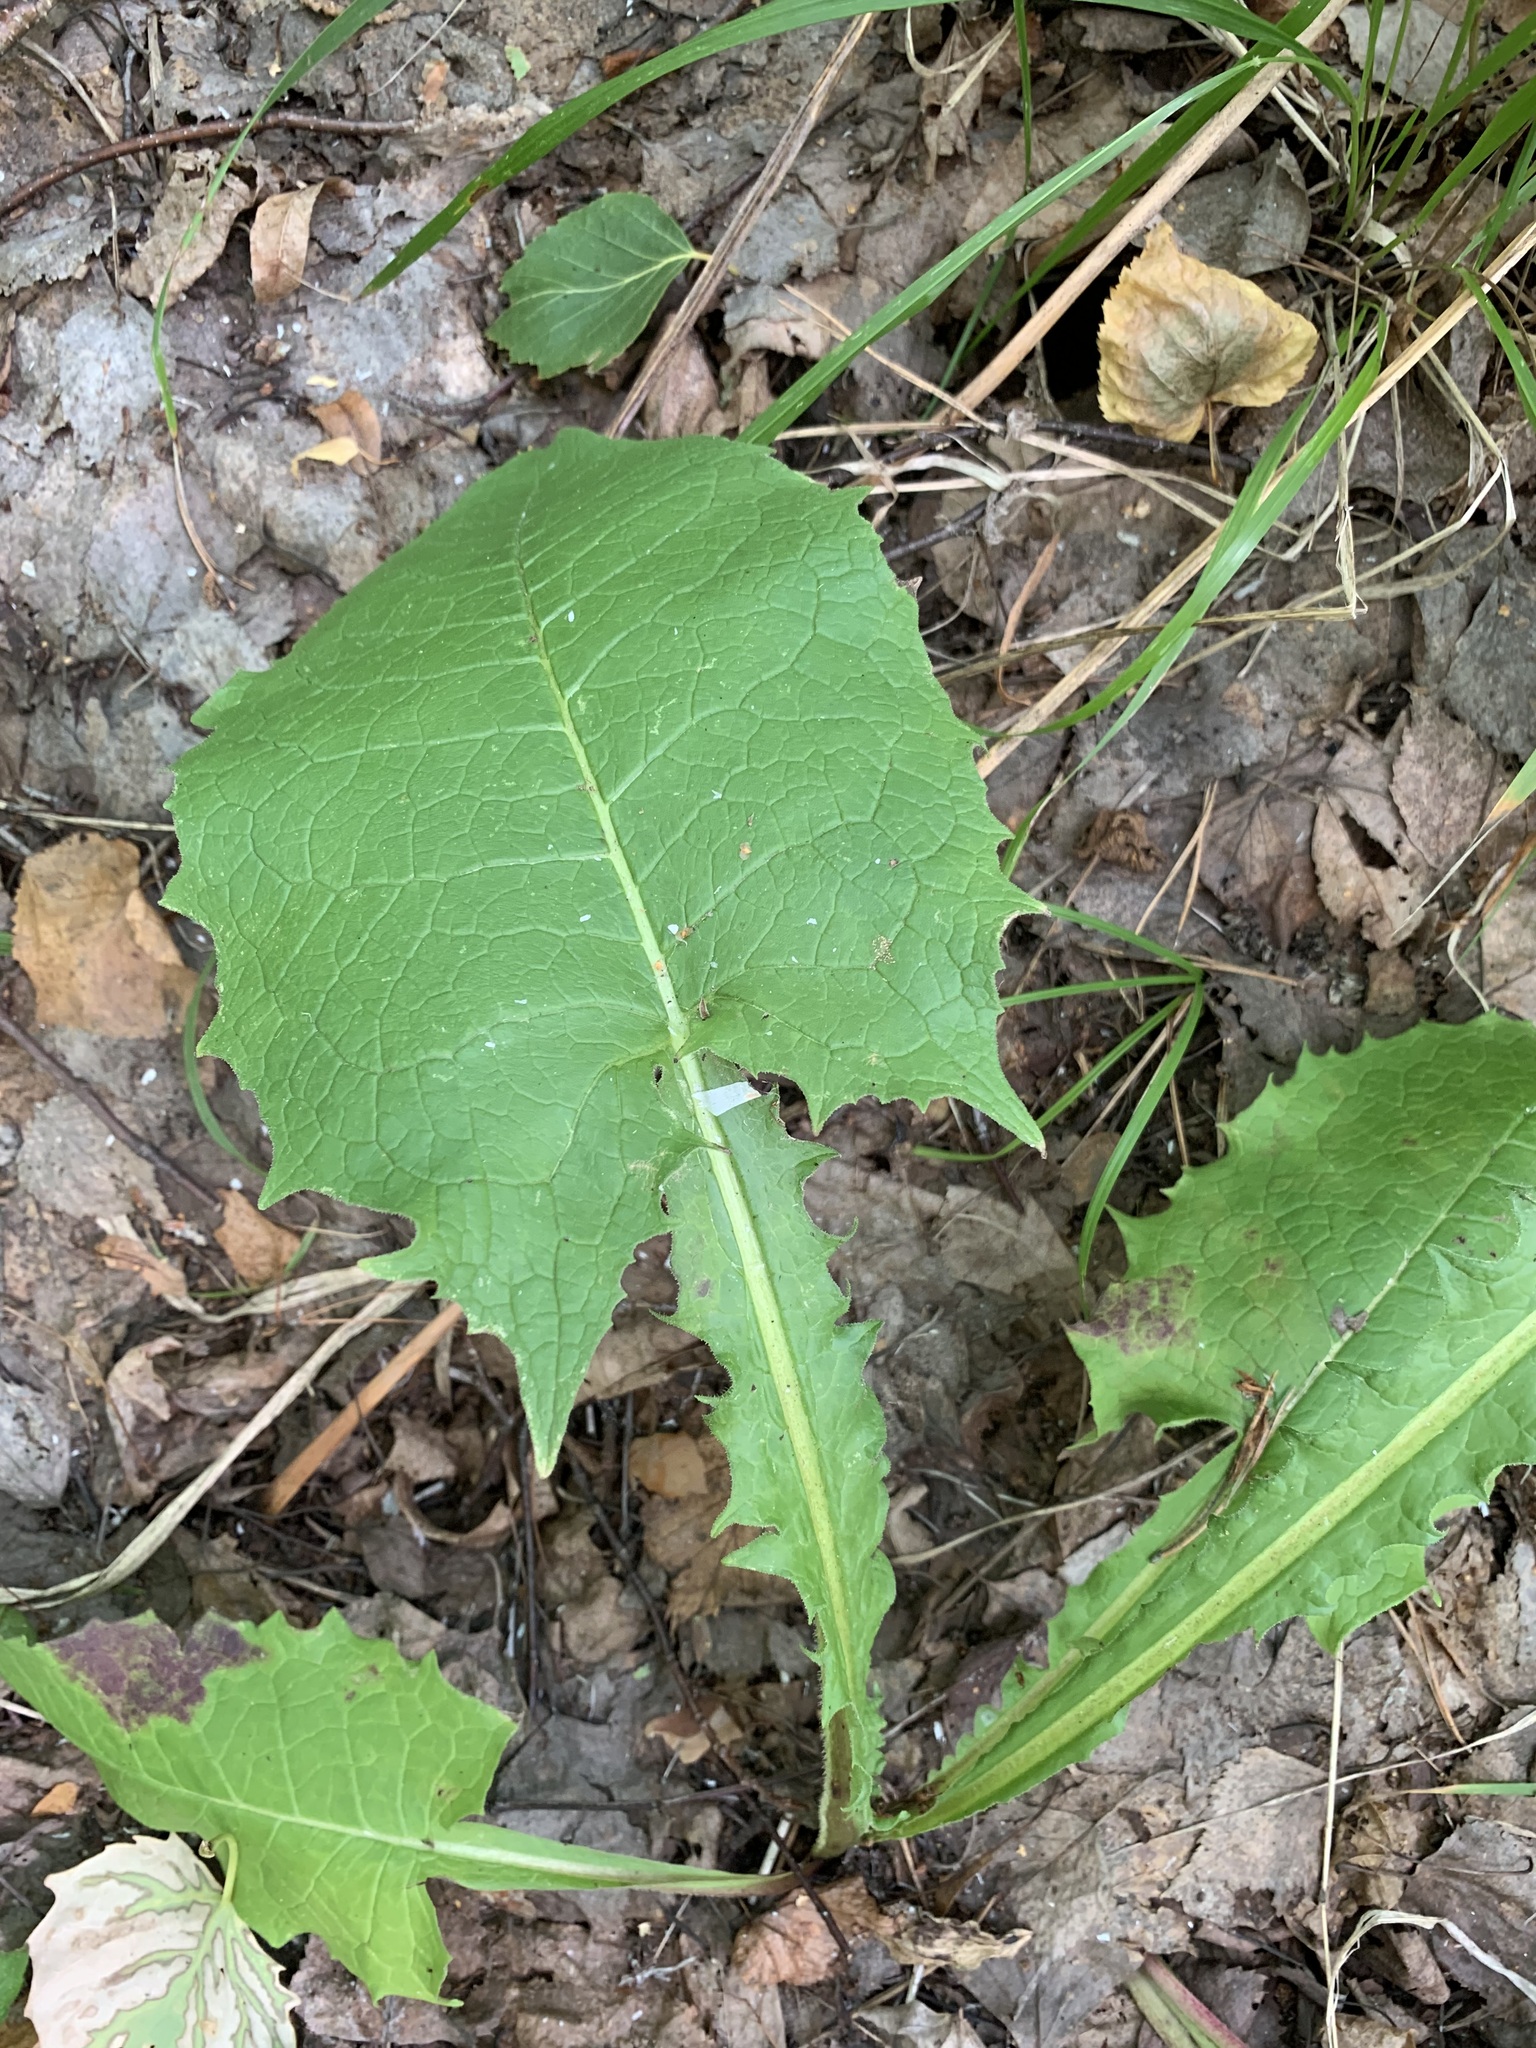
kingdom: Plantae
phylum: Tracheophyta
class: Magnoliopsida
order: Asterales
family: Asteraceae
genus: Crepis
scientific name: Crepis sibirica
